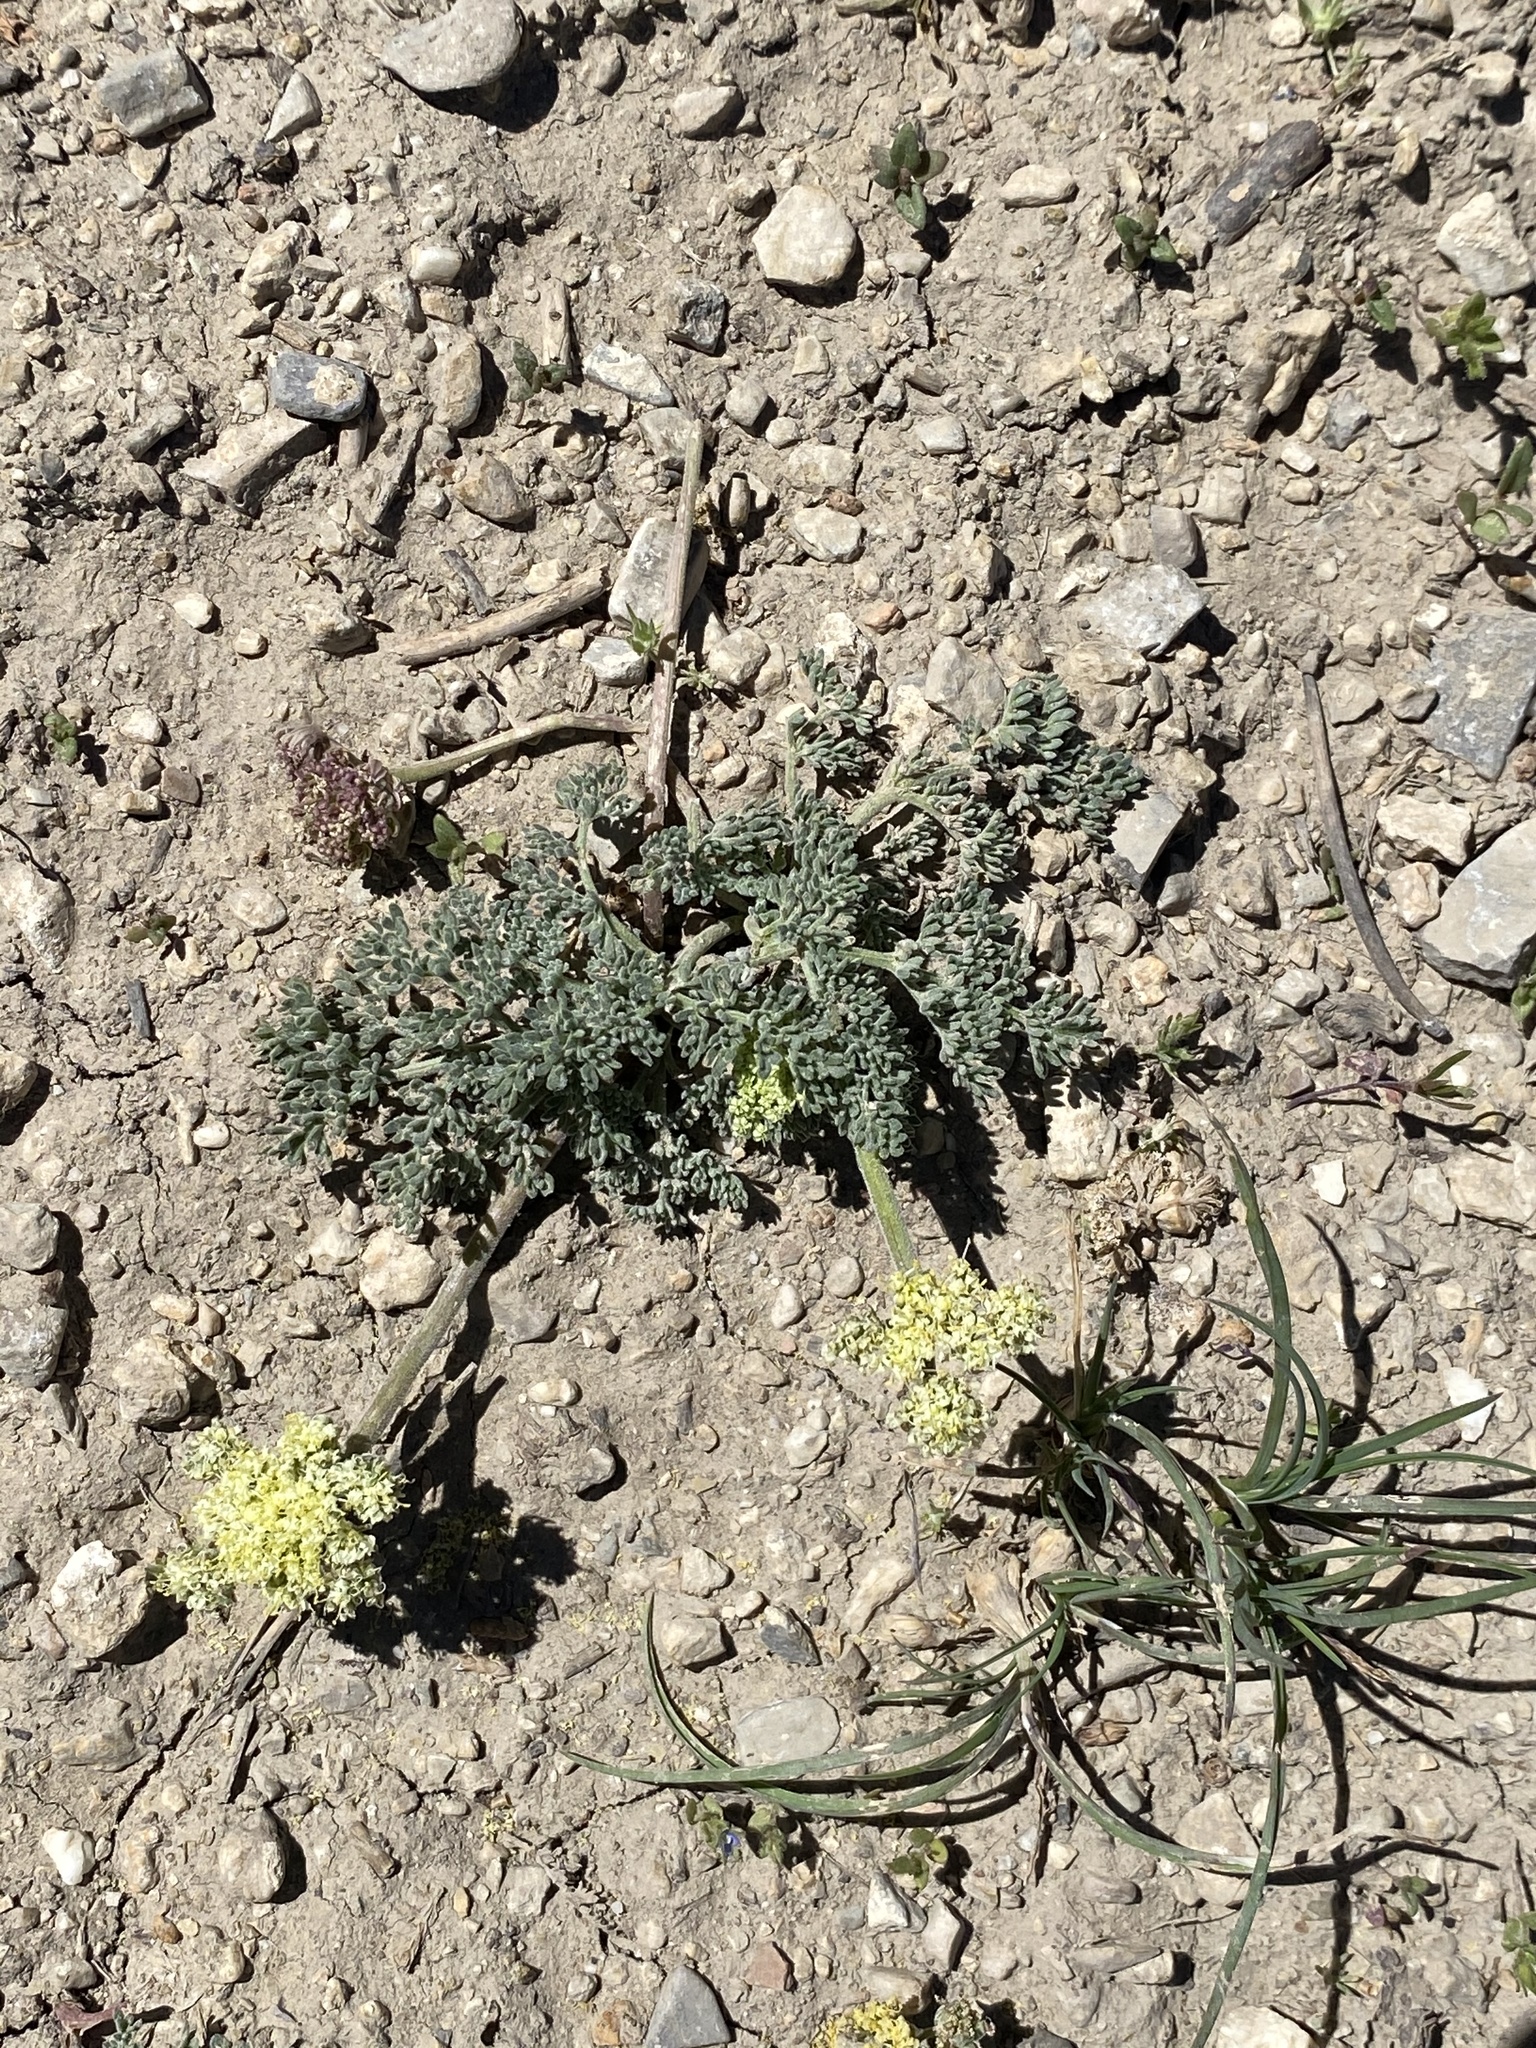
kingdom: Plantae
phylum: Tracheophyta
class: Magnoliopsida
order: Apiales
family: Apiaceae
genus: Lomatium
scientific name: Lomatium foeniculaceum
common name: Desert-parsley
